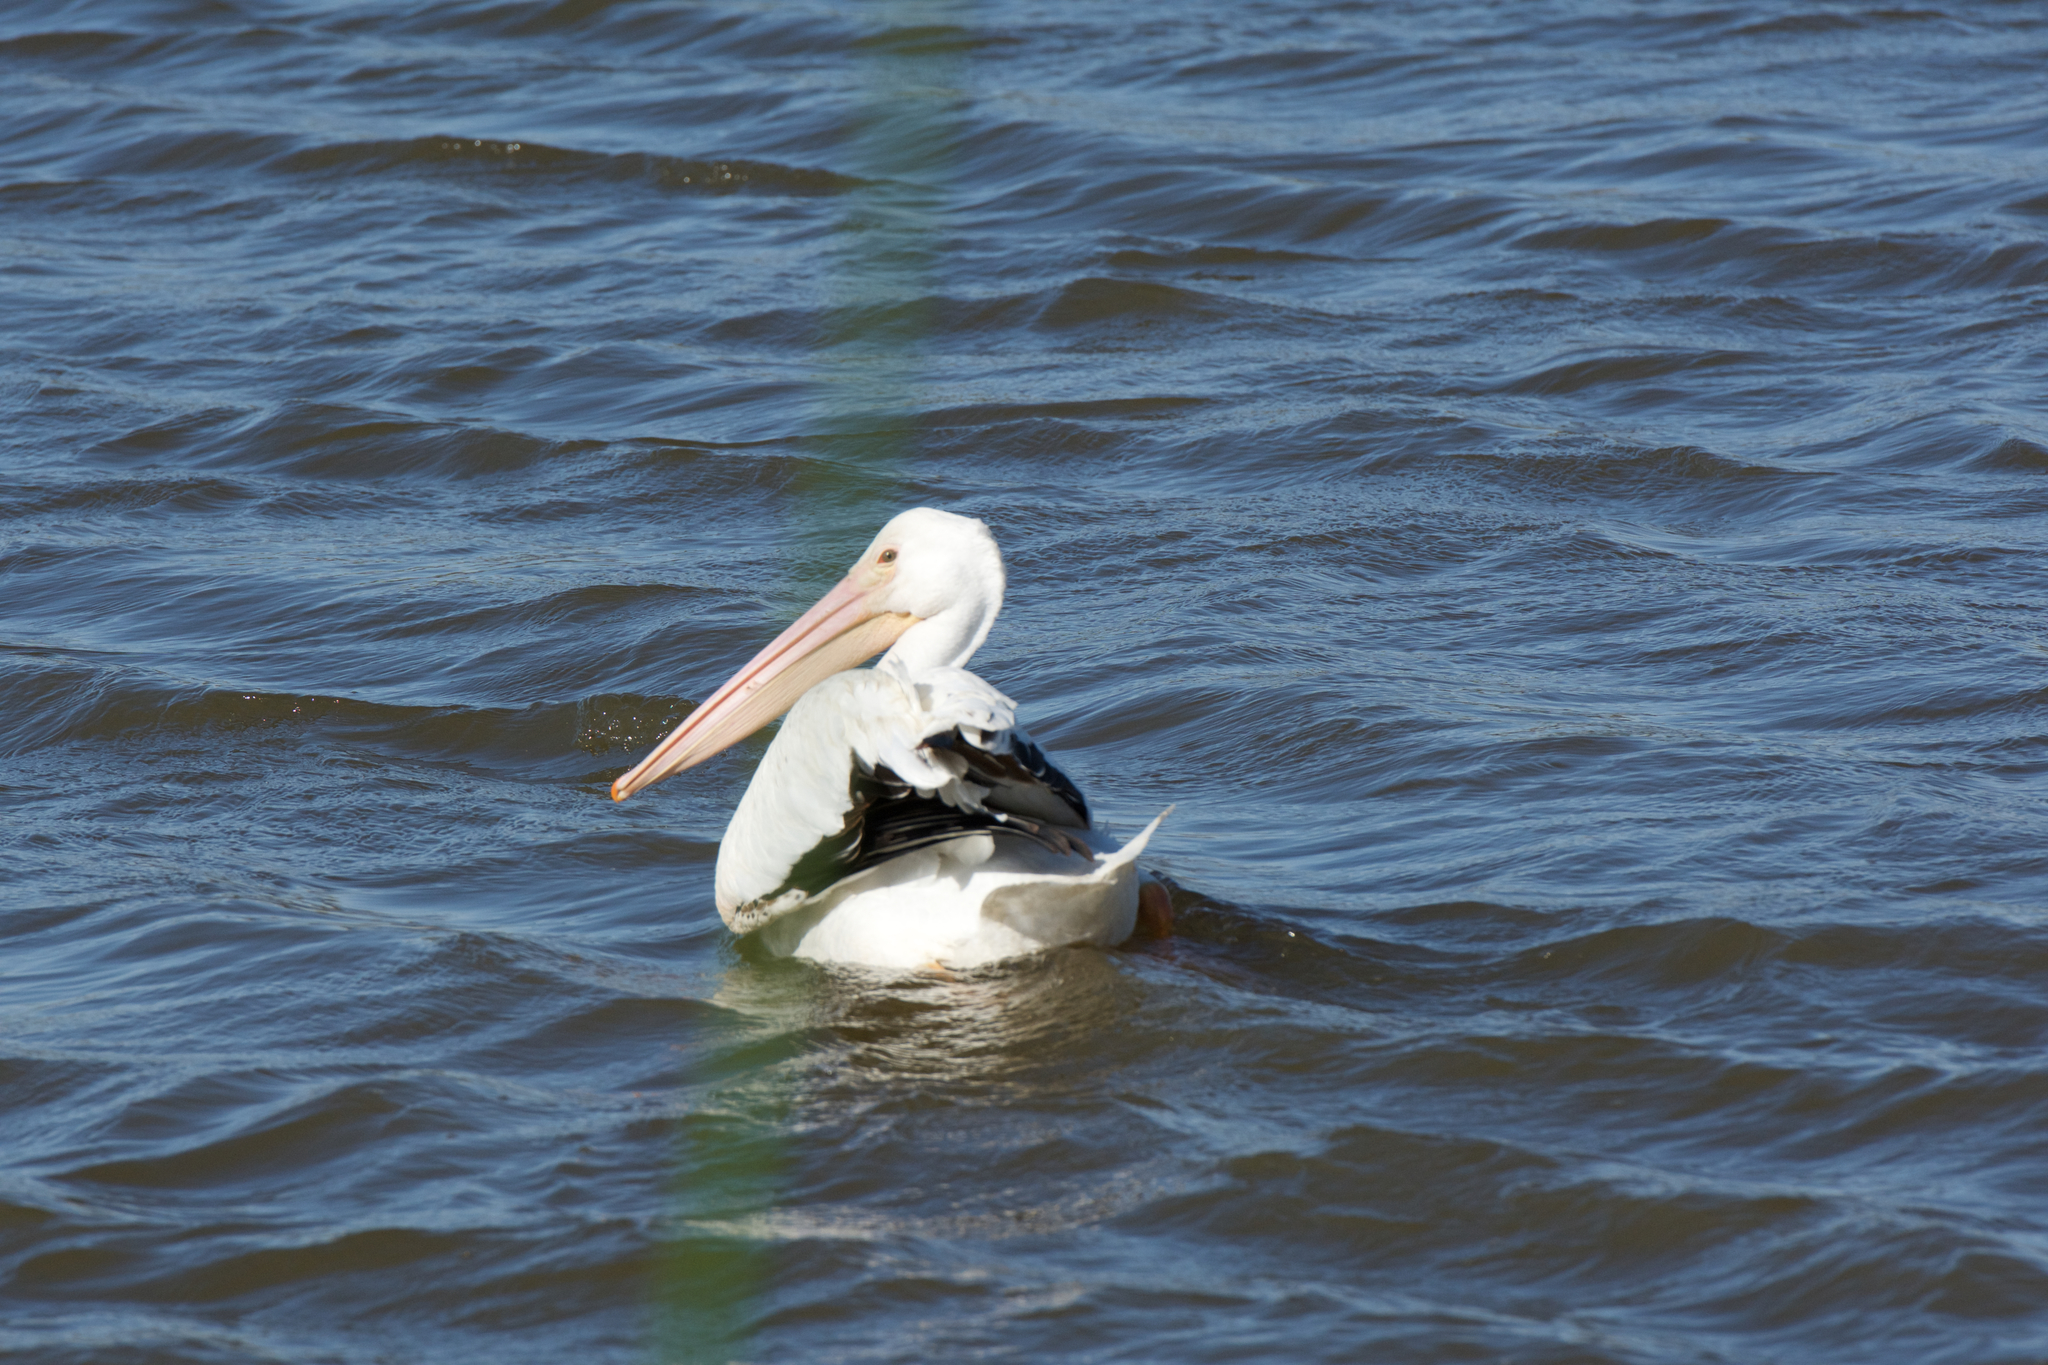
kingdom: Animalia
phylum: Chordata
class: Aves
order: Pelecaniformes
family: Pelecanidae
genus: Pelecanus
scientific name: Pelecanus erythrorhynchos
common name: American white pelican
